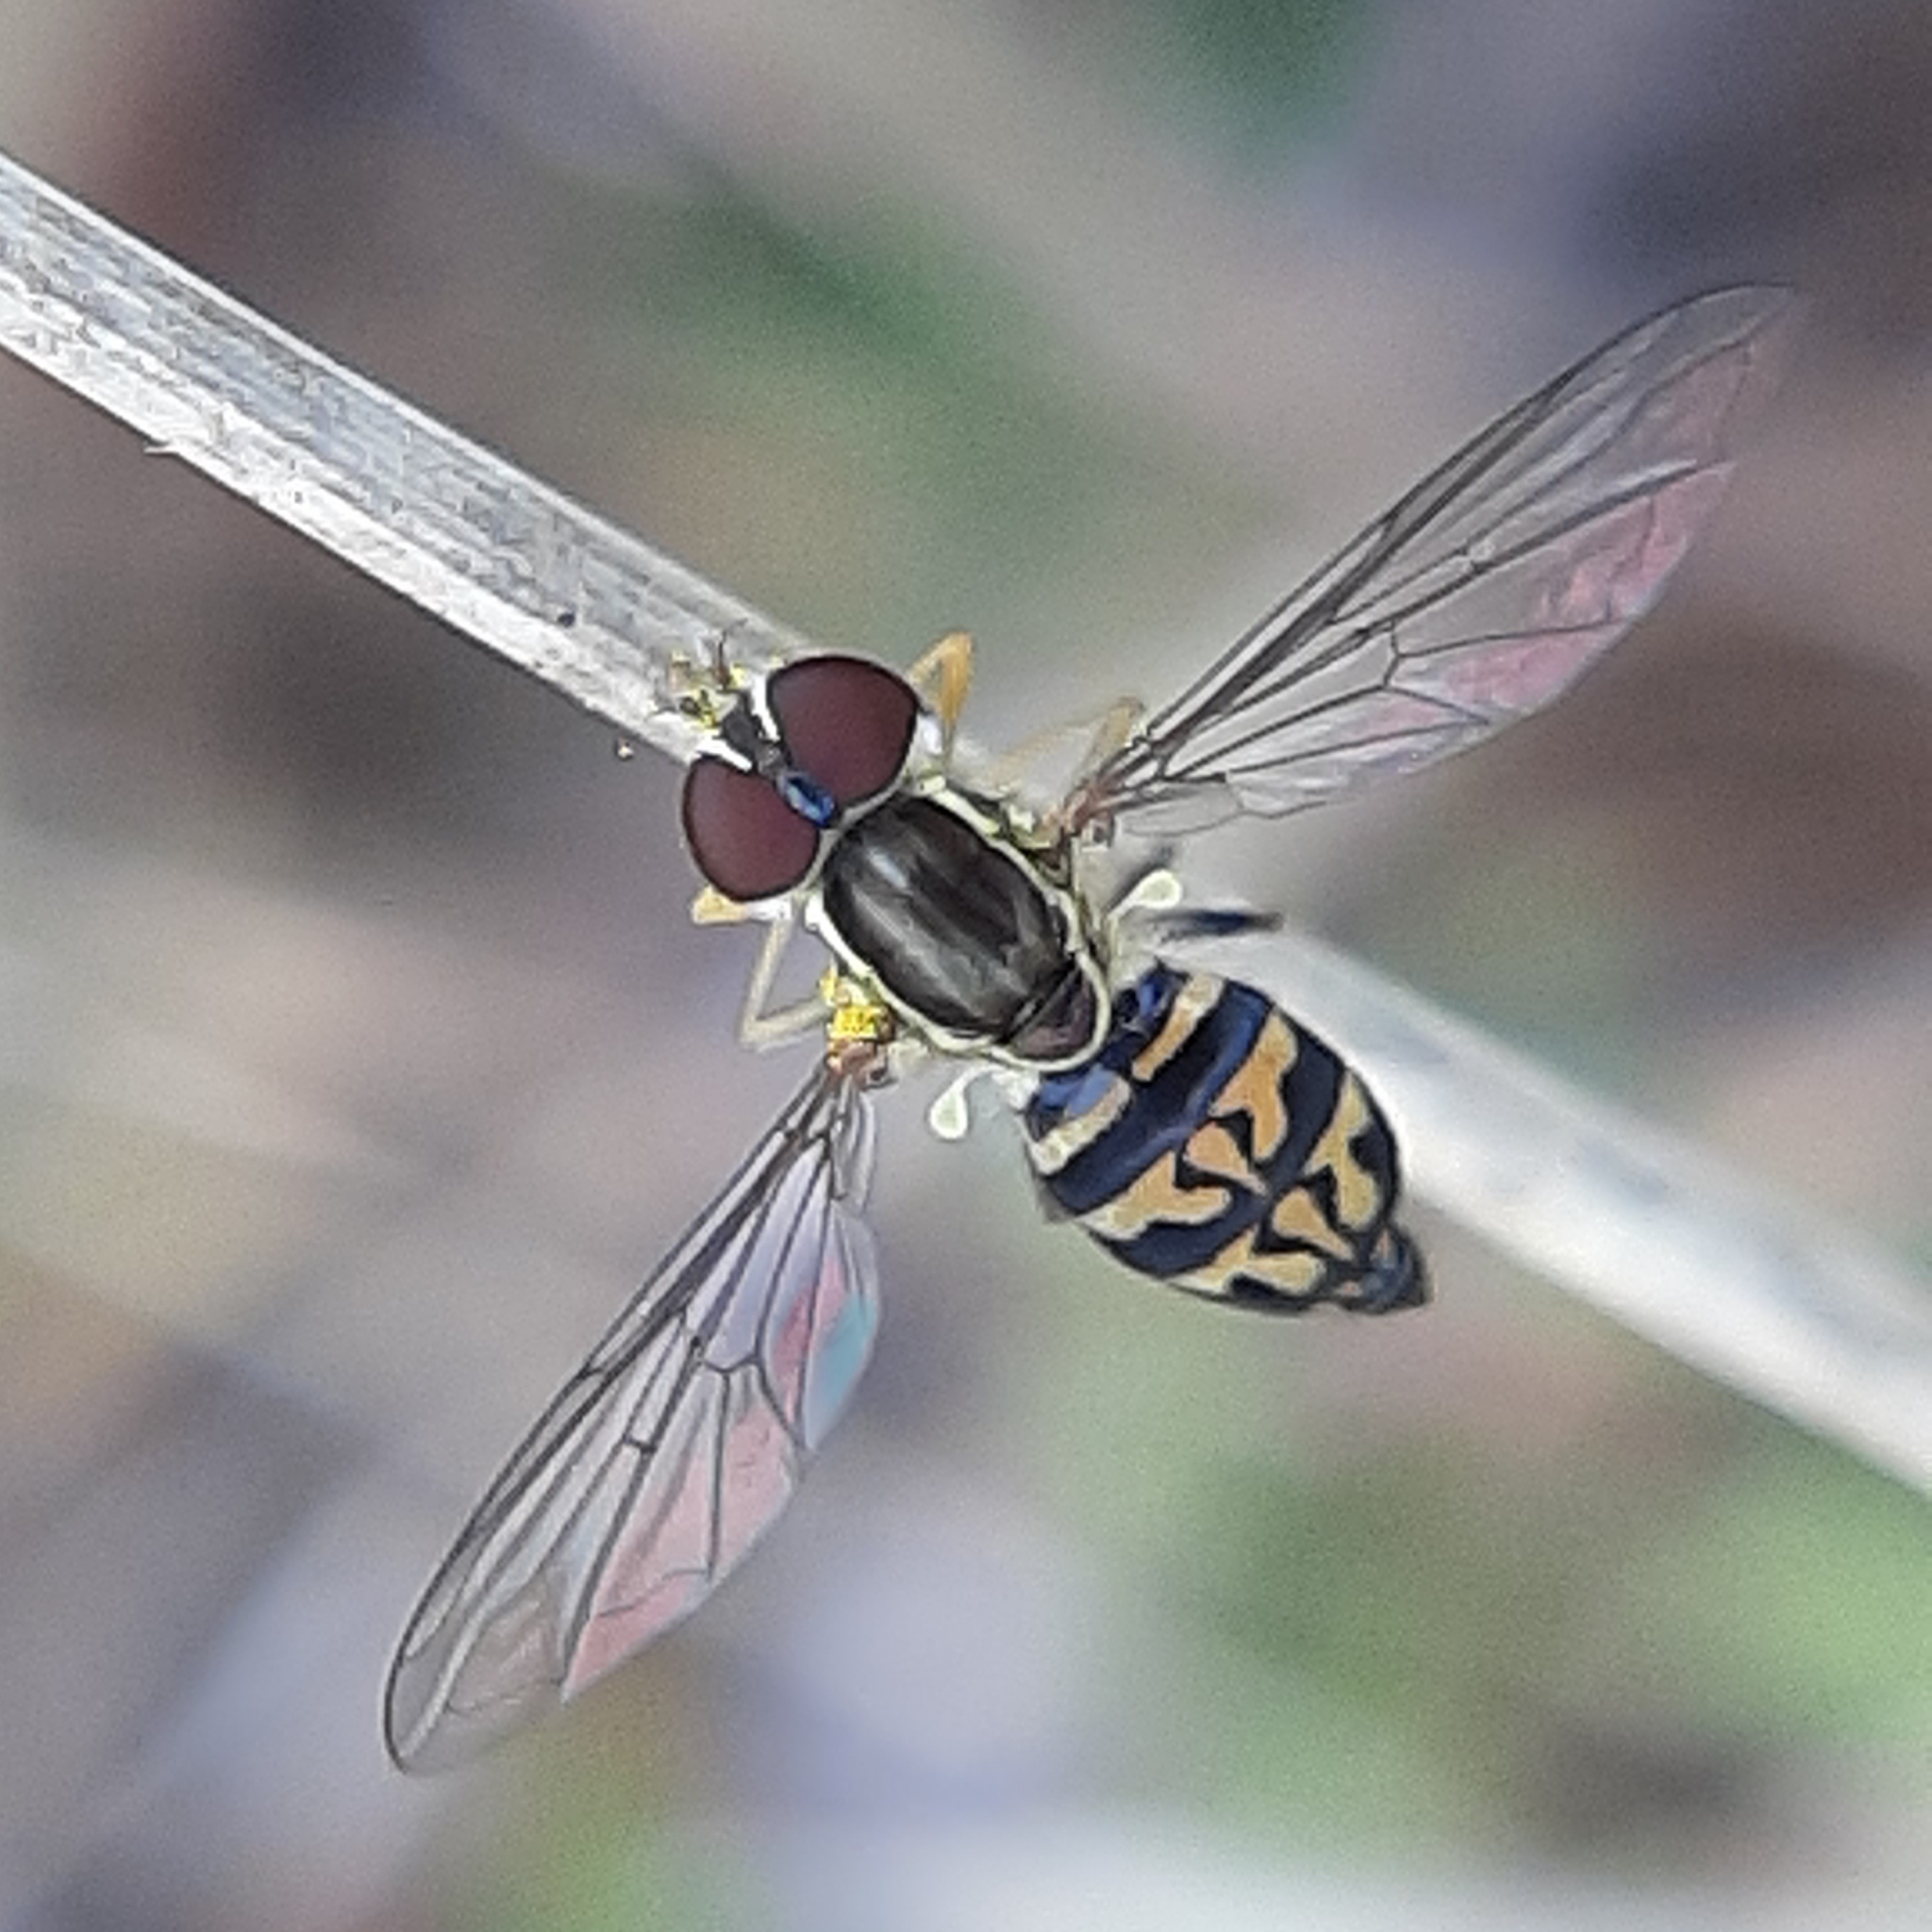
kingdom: Animalia
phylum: Arthropoda
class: Insecta
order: Diptera
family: Syrphidae
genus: Toxomerus
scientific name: Toxomerus geminatus
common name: Eastern calligrapher
